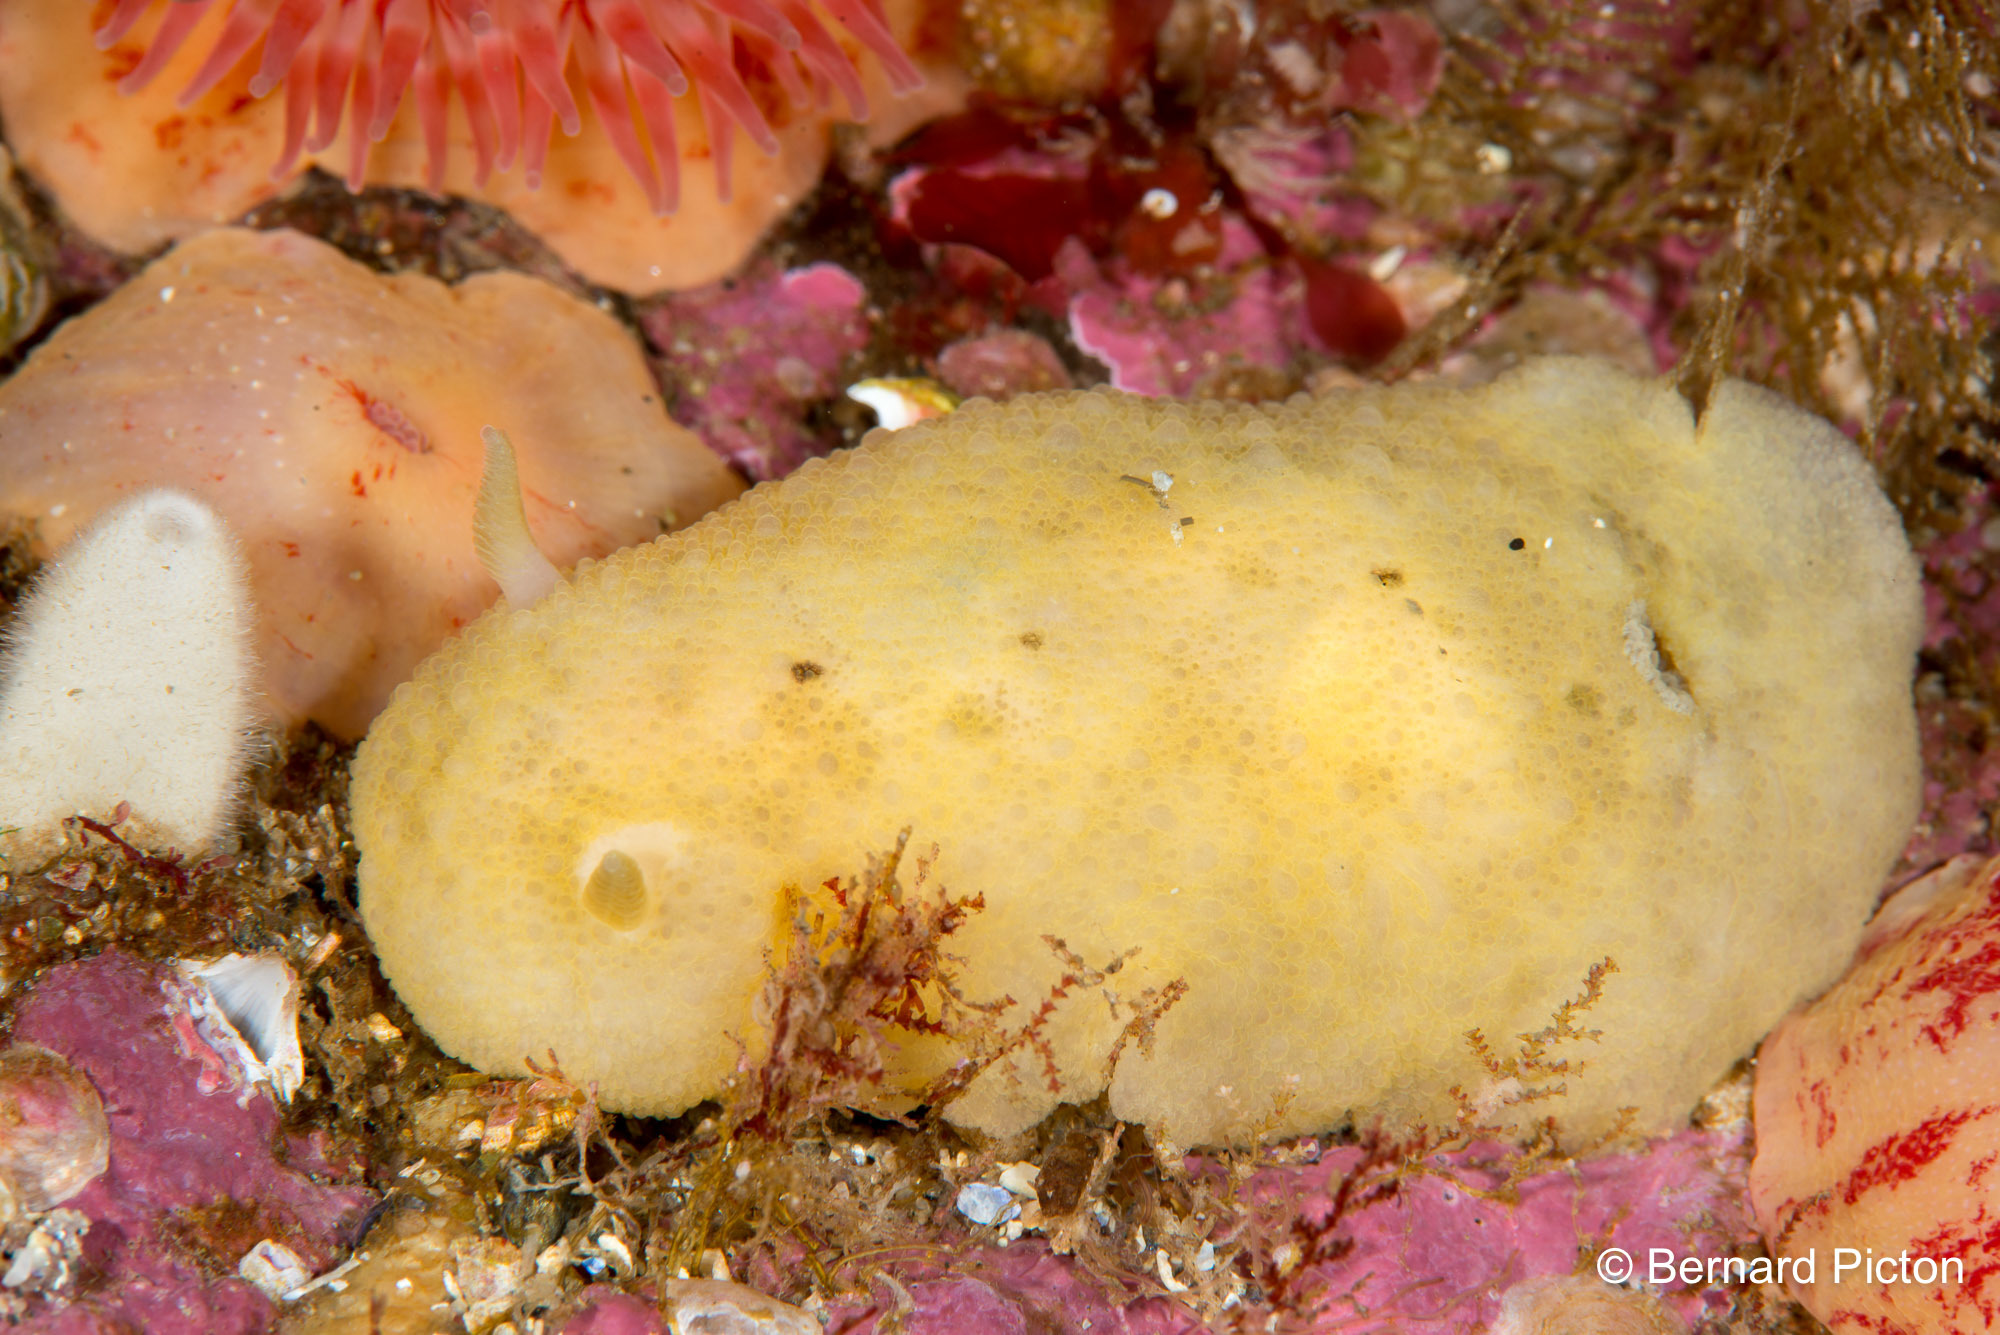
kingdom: Animalia
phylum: Mollusca
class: Gastropoda
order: Nudibranchia
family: Dorididae
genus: Doris
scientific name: Doris pseudoargus
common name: Sea lemon
